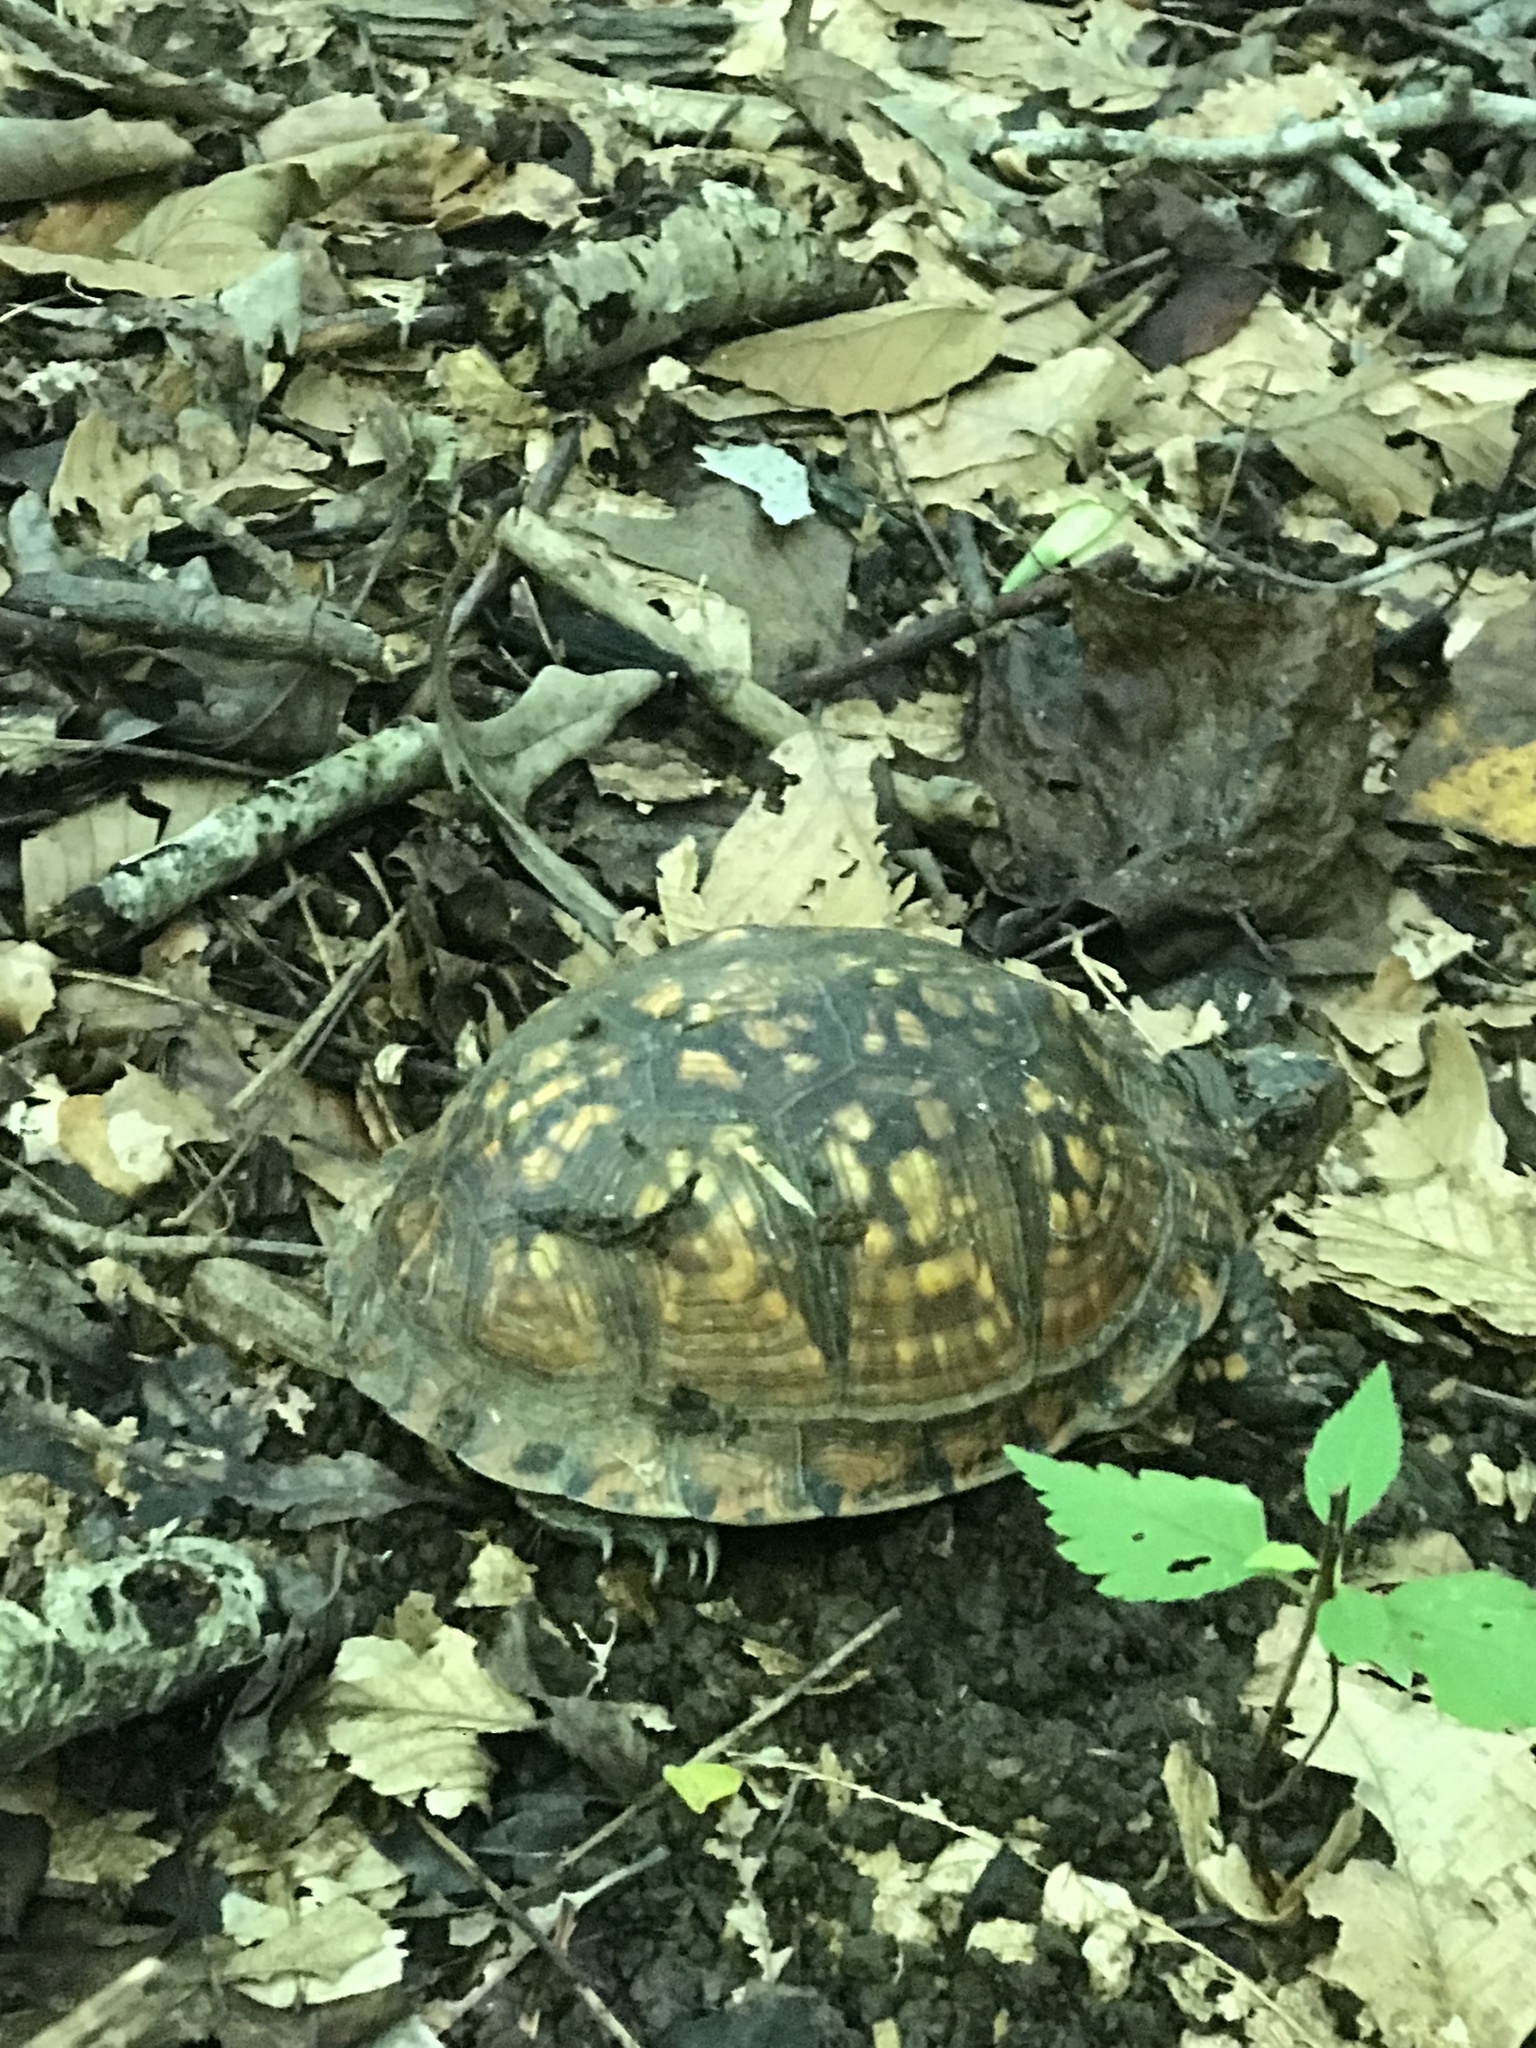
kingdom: Animalia
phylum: Chordata
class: Testudines
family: Emydidae
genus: Terrapene
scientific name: Terrapene carolina
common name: Common box turtle
